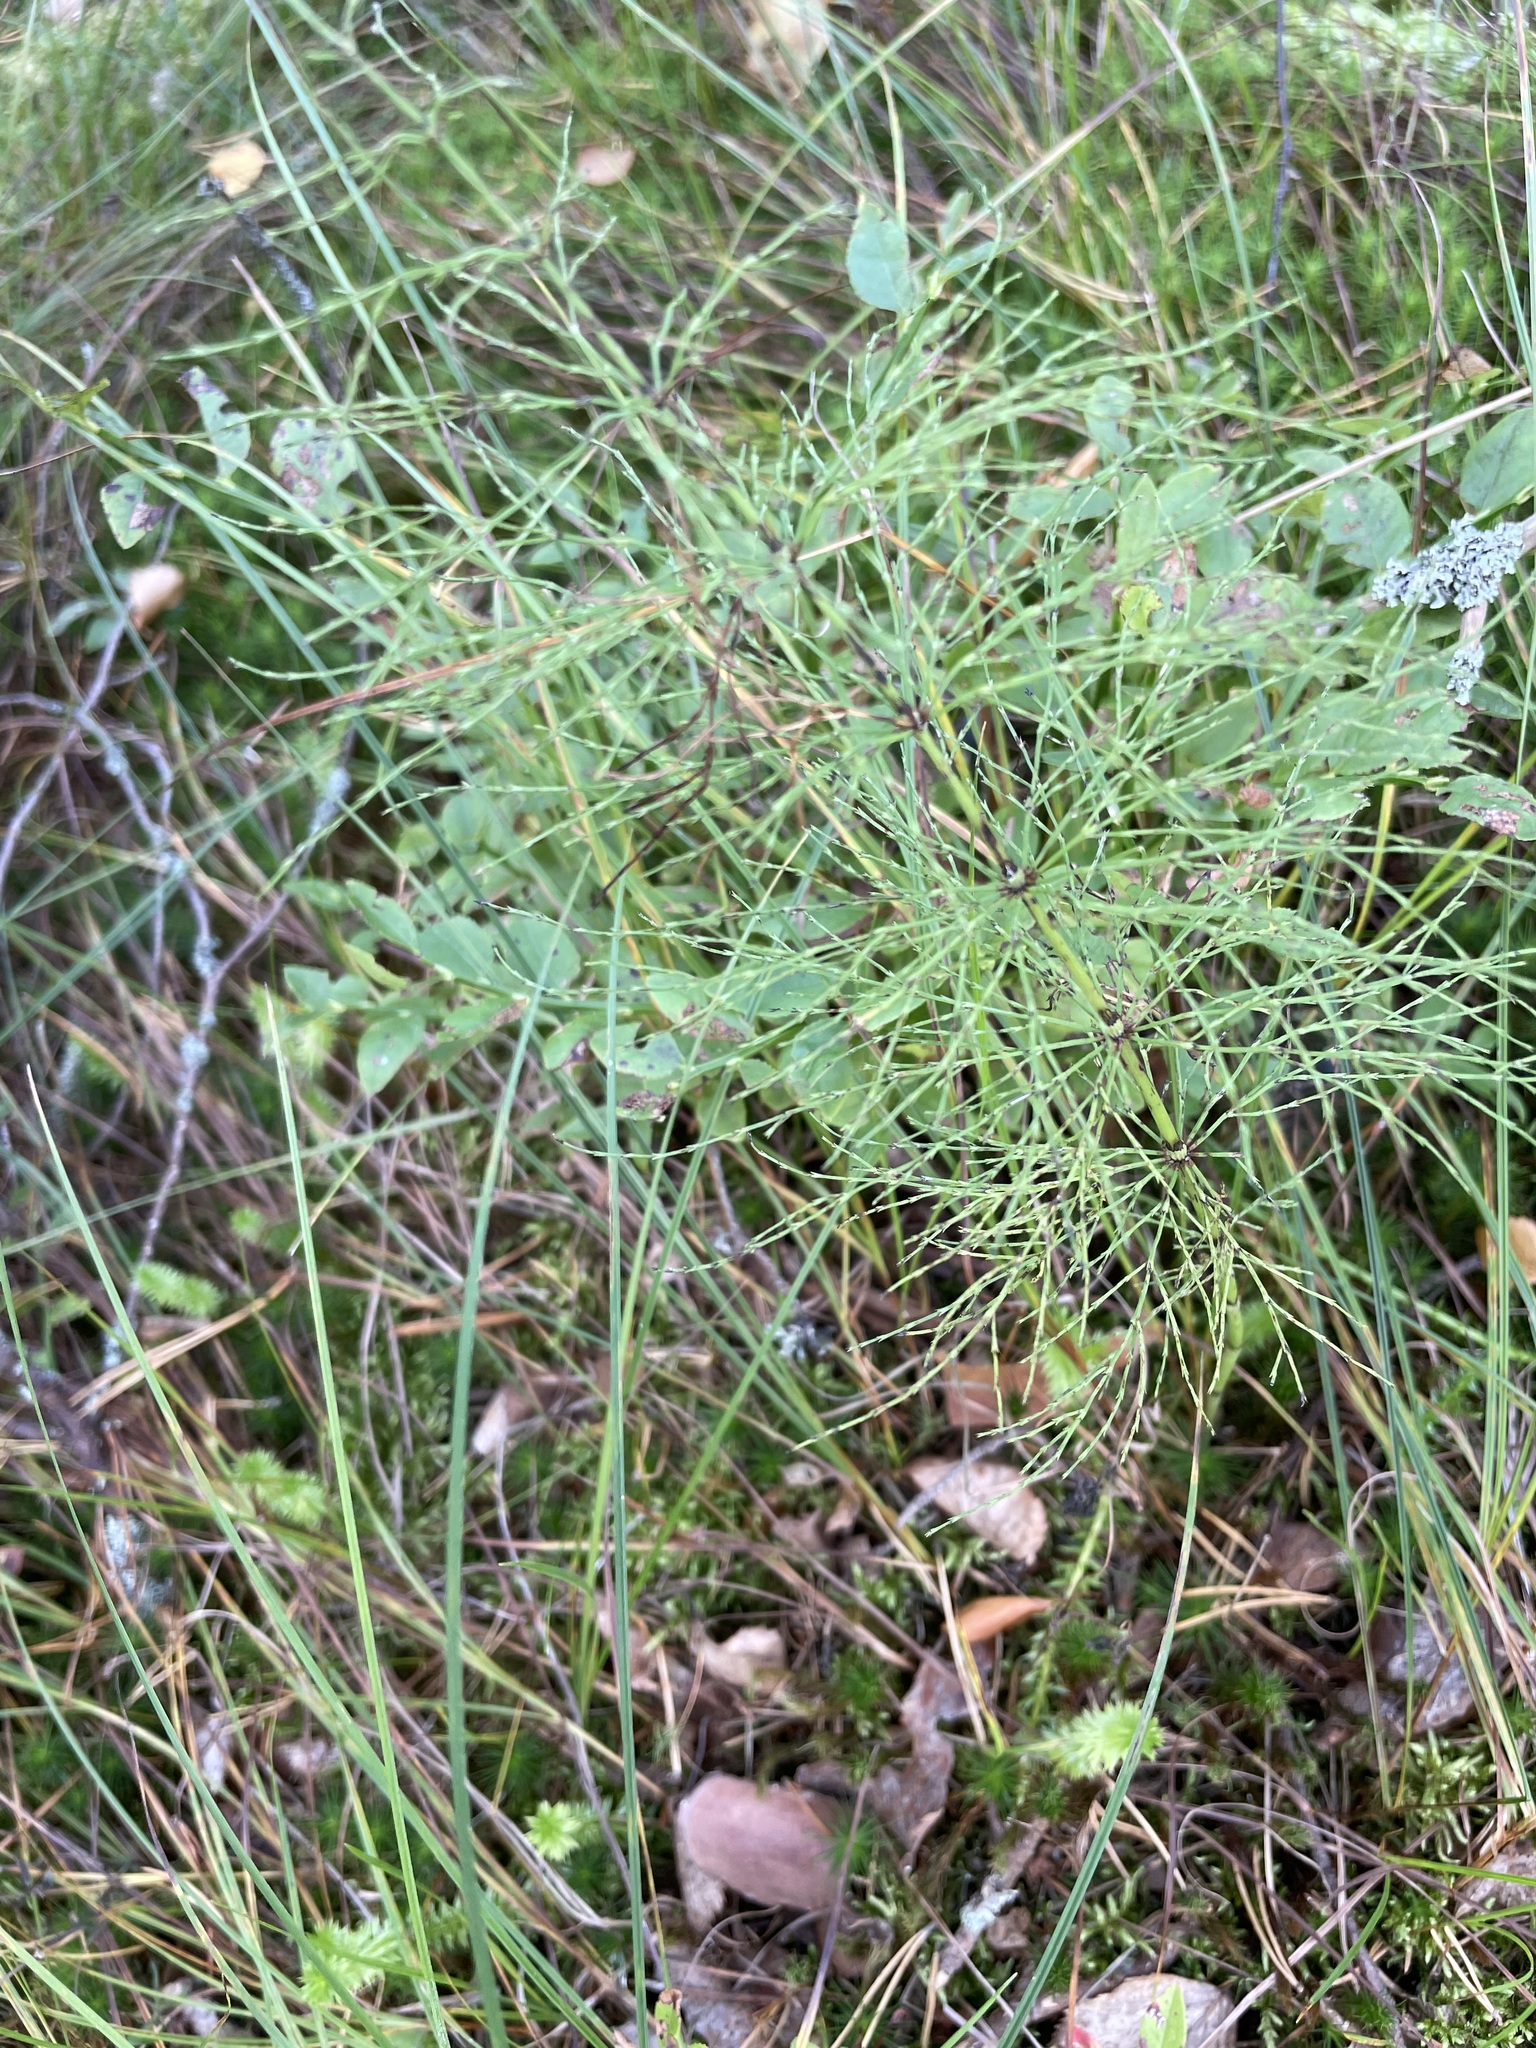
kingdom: Plantae
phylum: Tracheophyta
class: Polypodiopsida
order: Equisetales
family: Equisetaceae
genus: Equisetum
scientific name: Equisetum sylvaticum
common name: Wood horsetail
